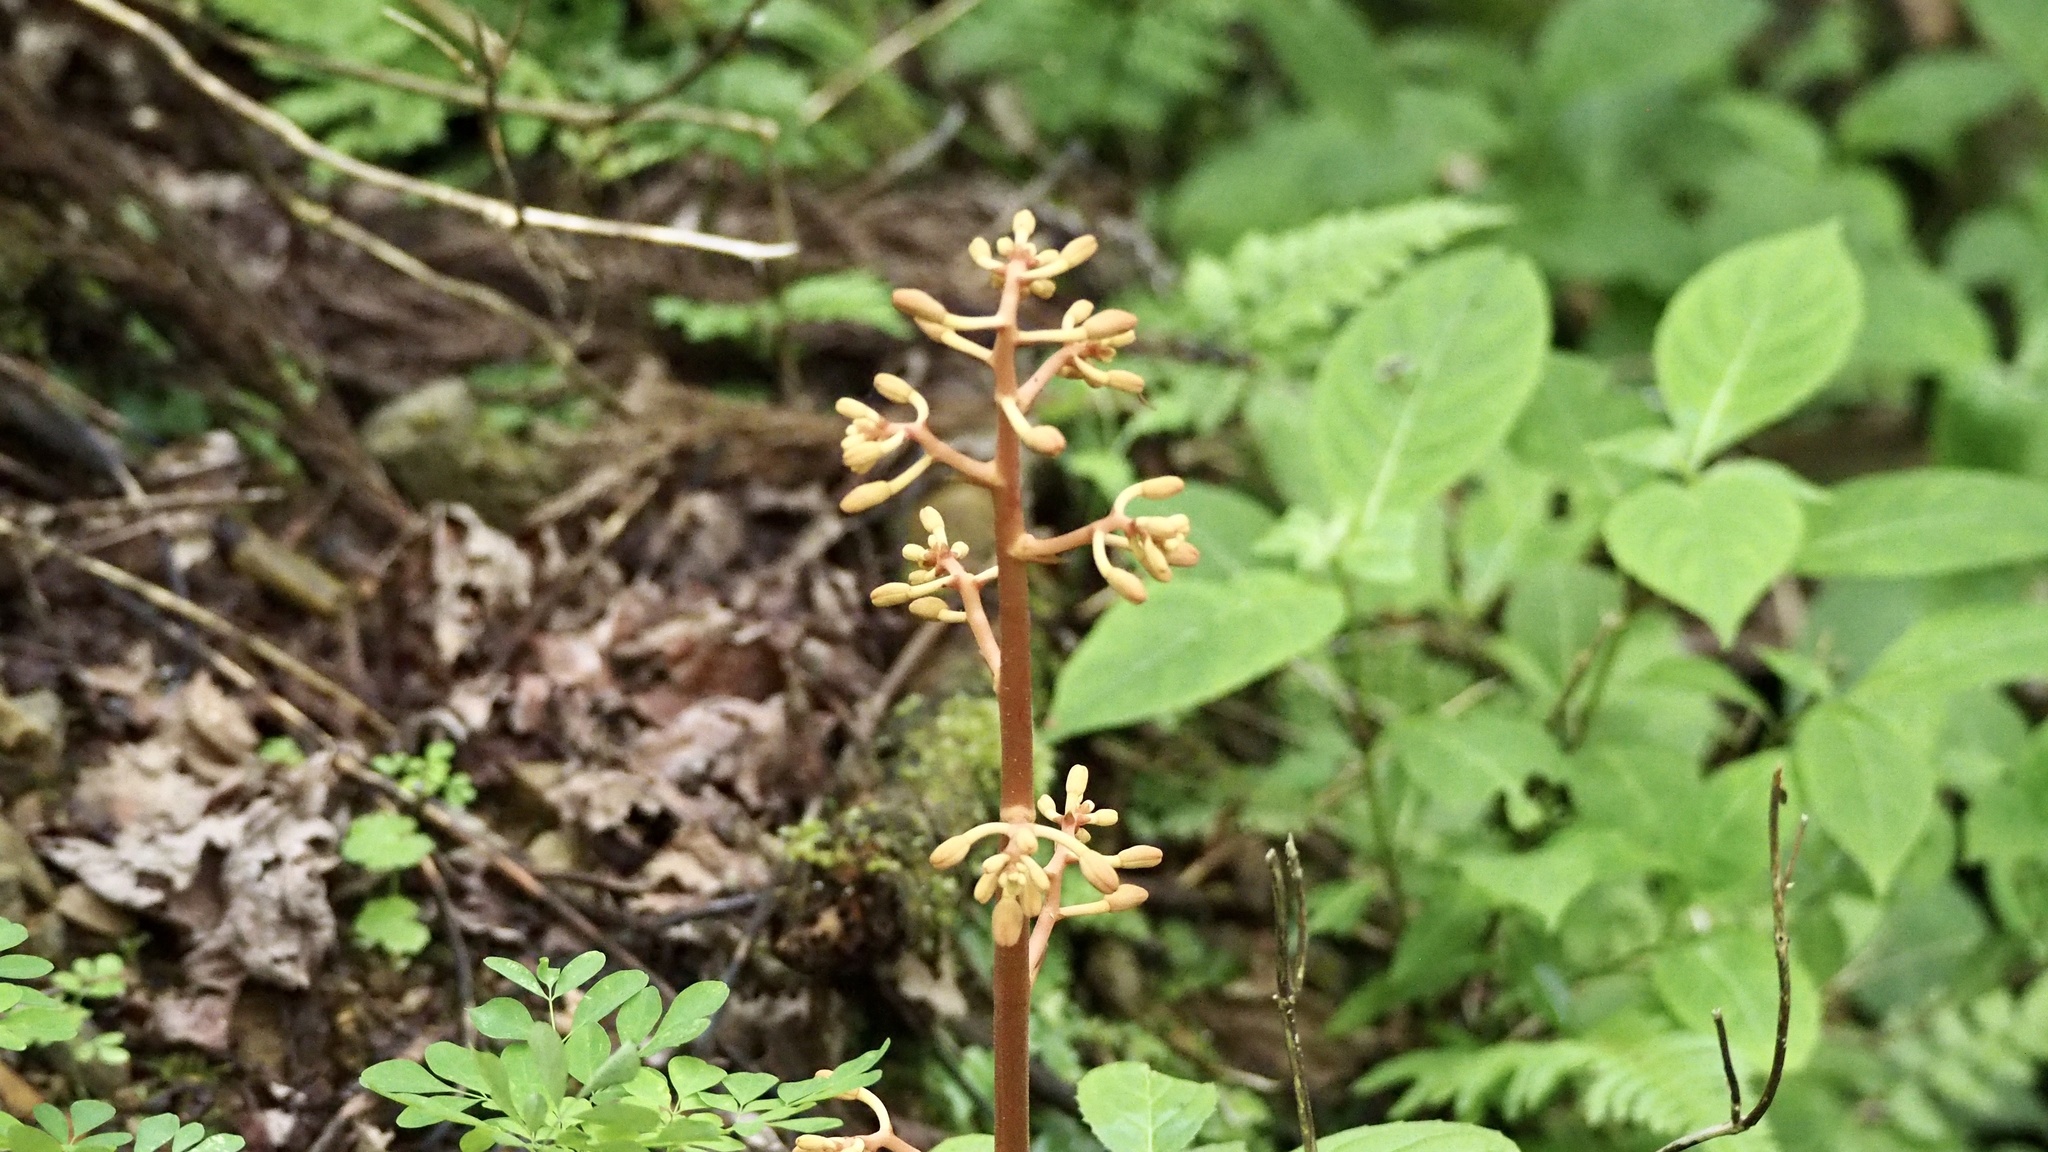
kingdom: Plantae
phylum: Tracheophyta
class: Liliopsida
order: Asparagales
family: Orchidaceae
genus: Cyrtosia
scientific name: Cyrtosia septentrionalis
